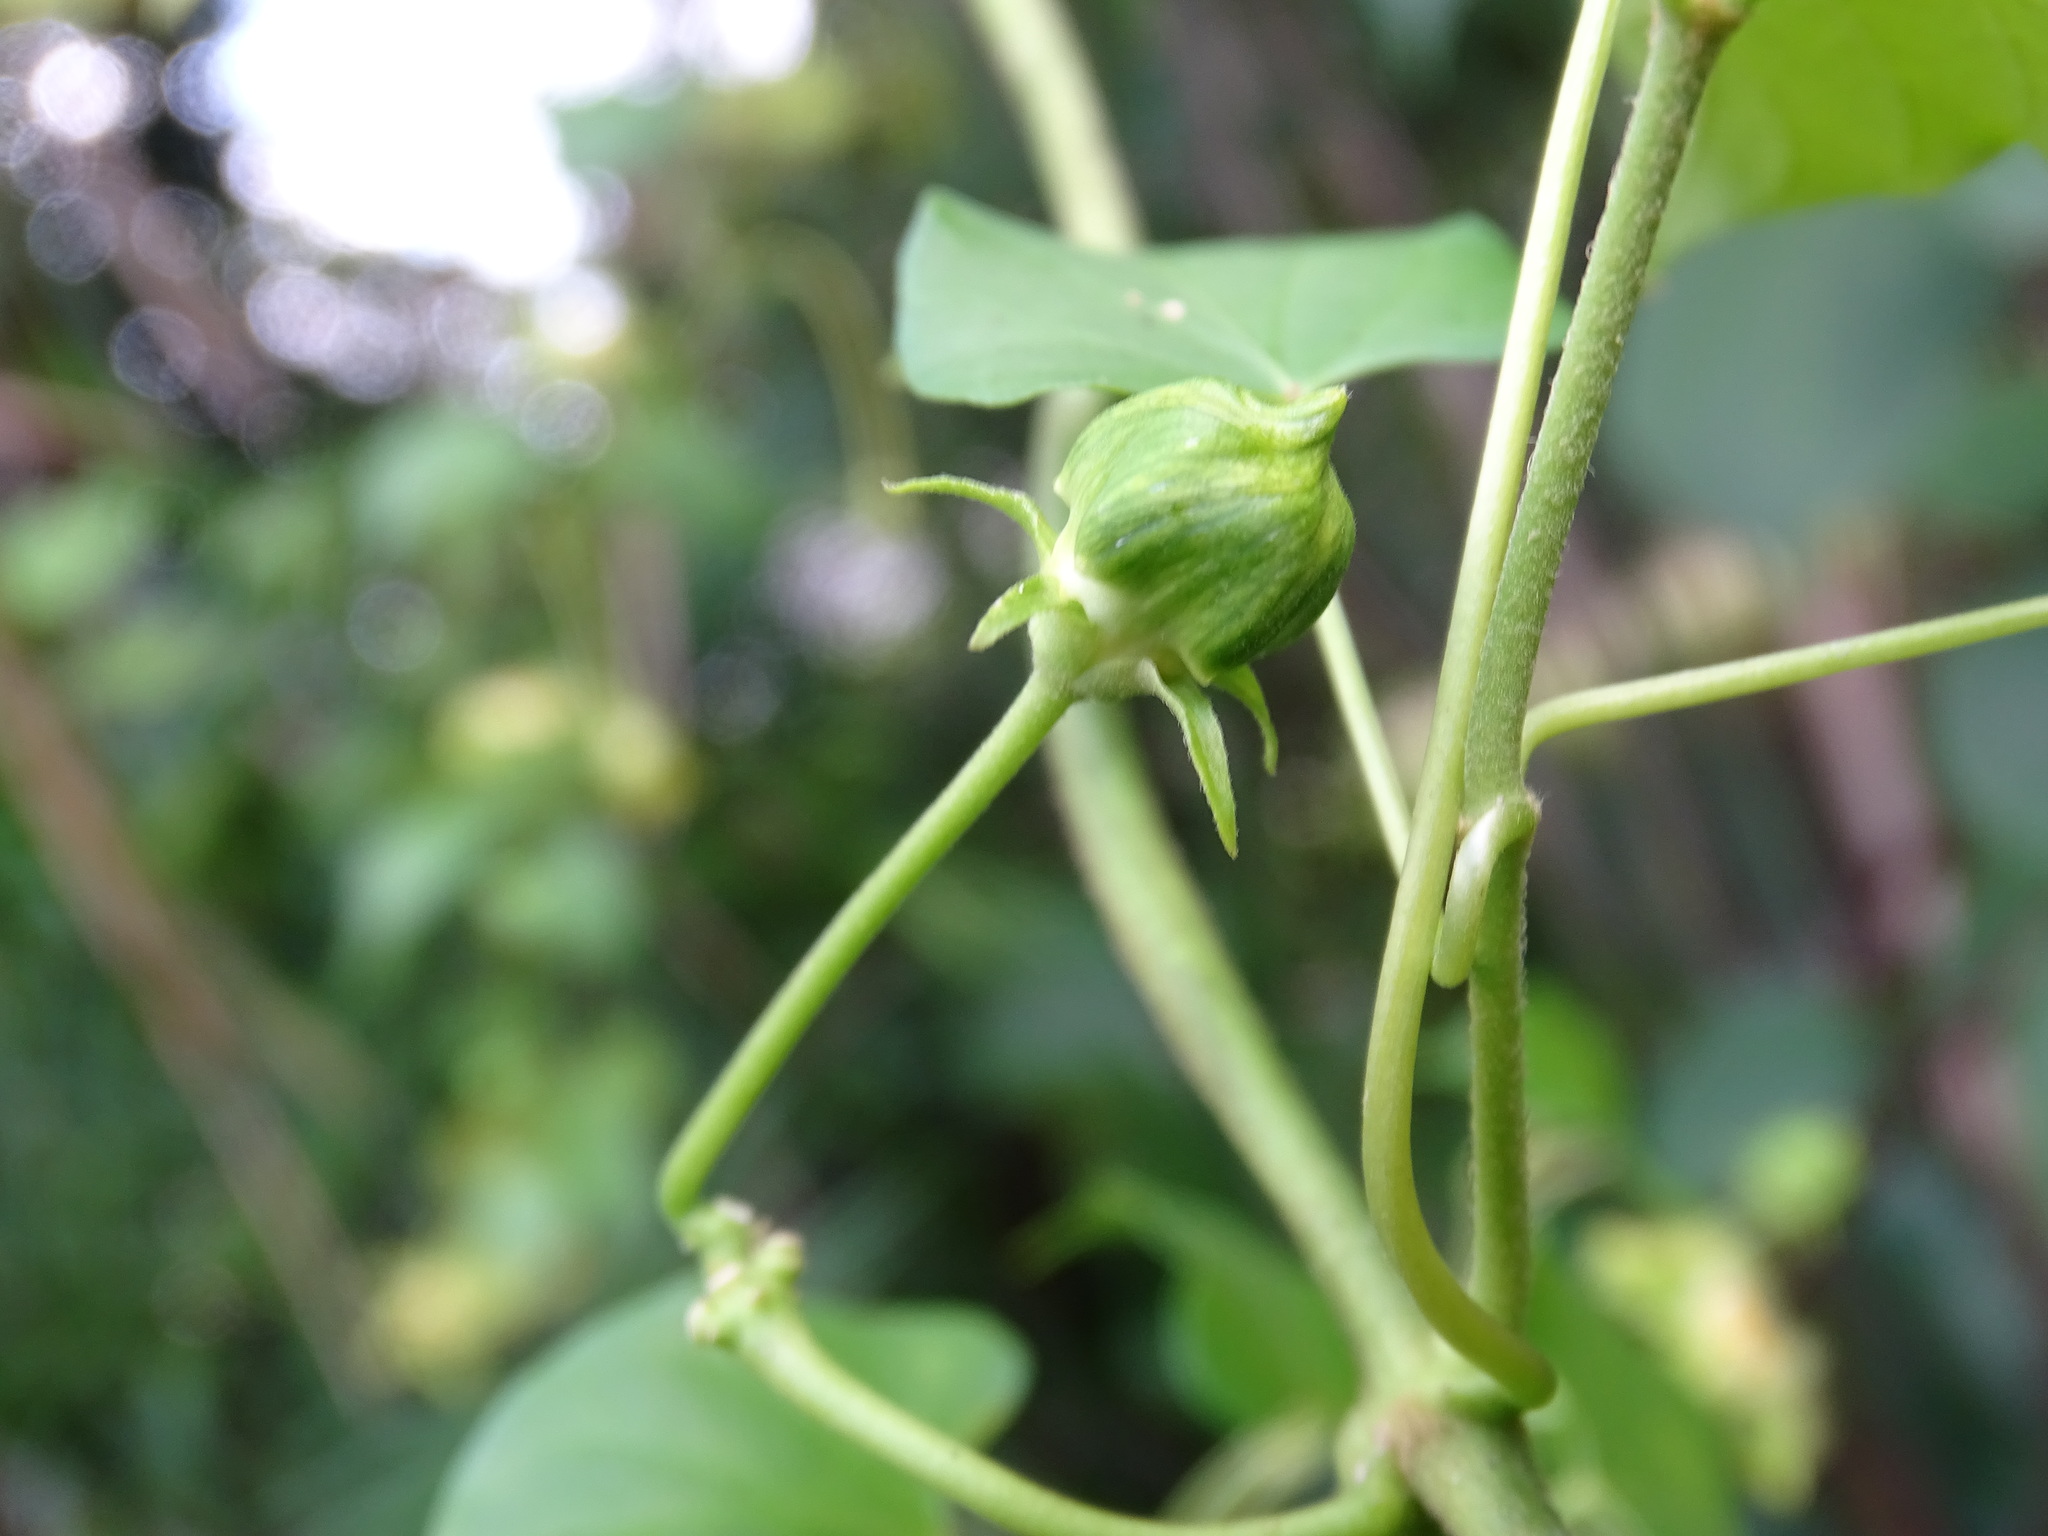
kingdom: Plantae
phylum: Tracheophyta
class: Magnoliopsida
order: Gentianales
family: Apocynaceae
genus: Gonolobus
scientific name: Gonolobus barbatus
